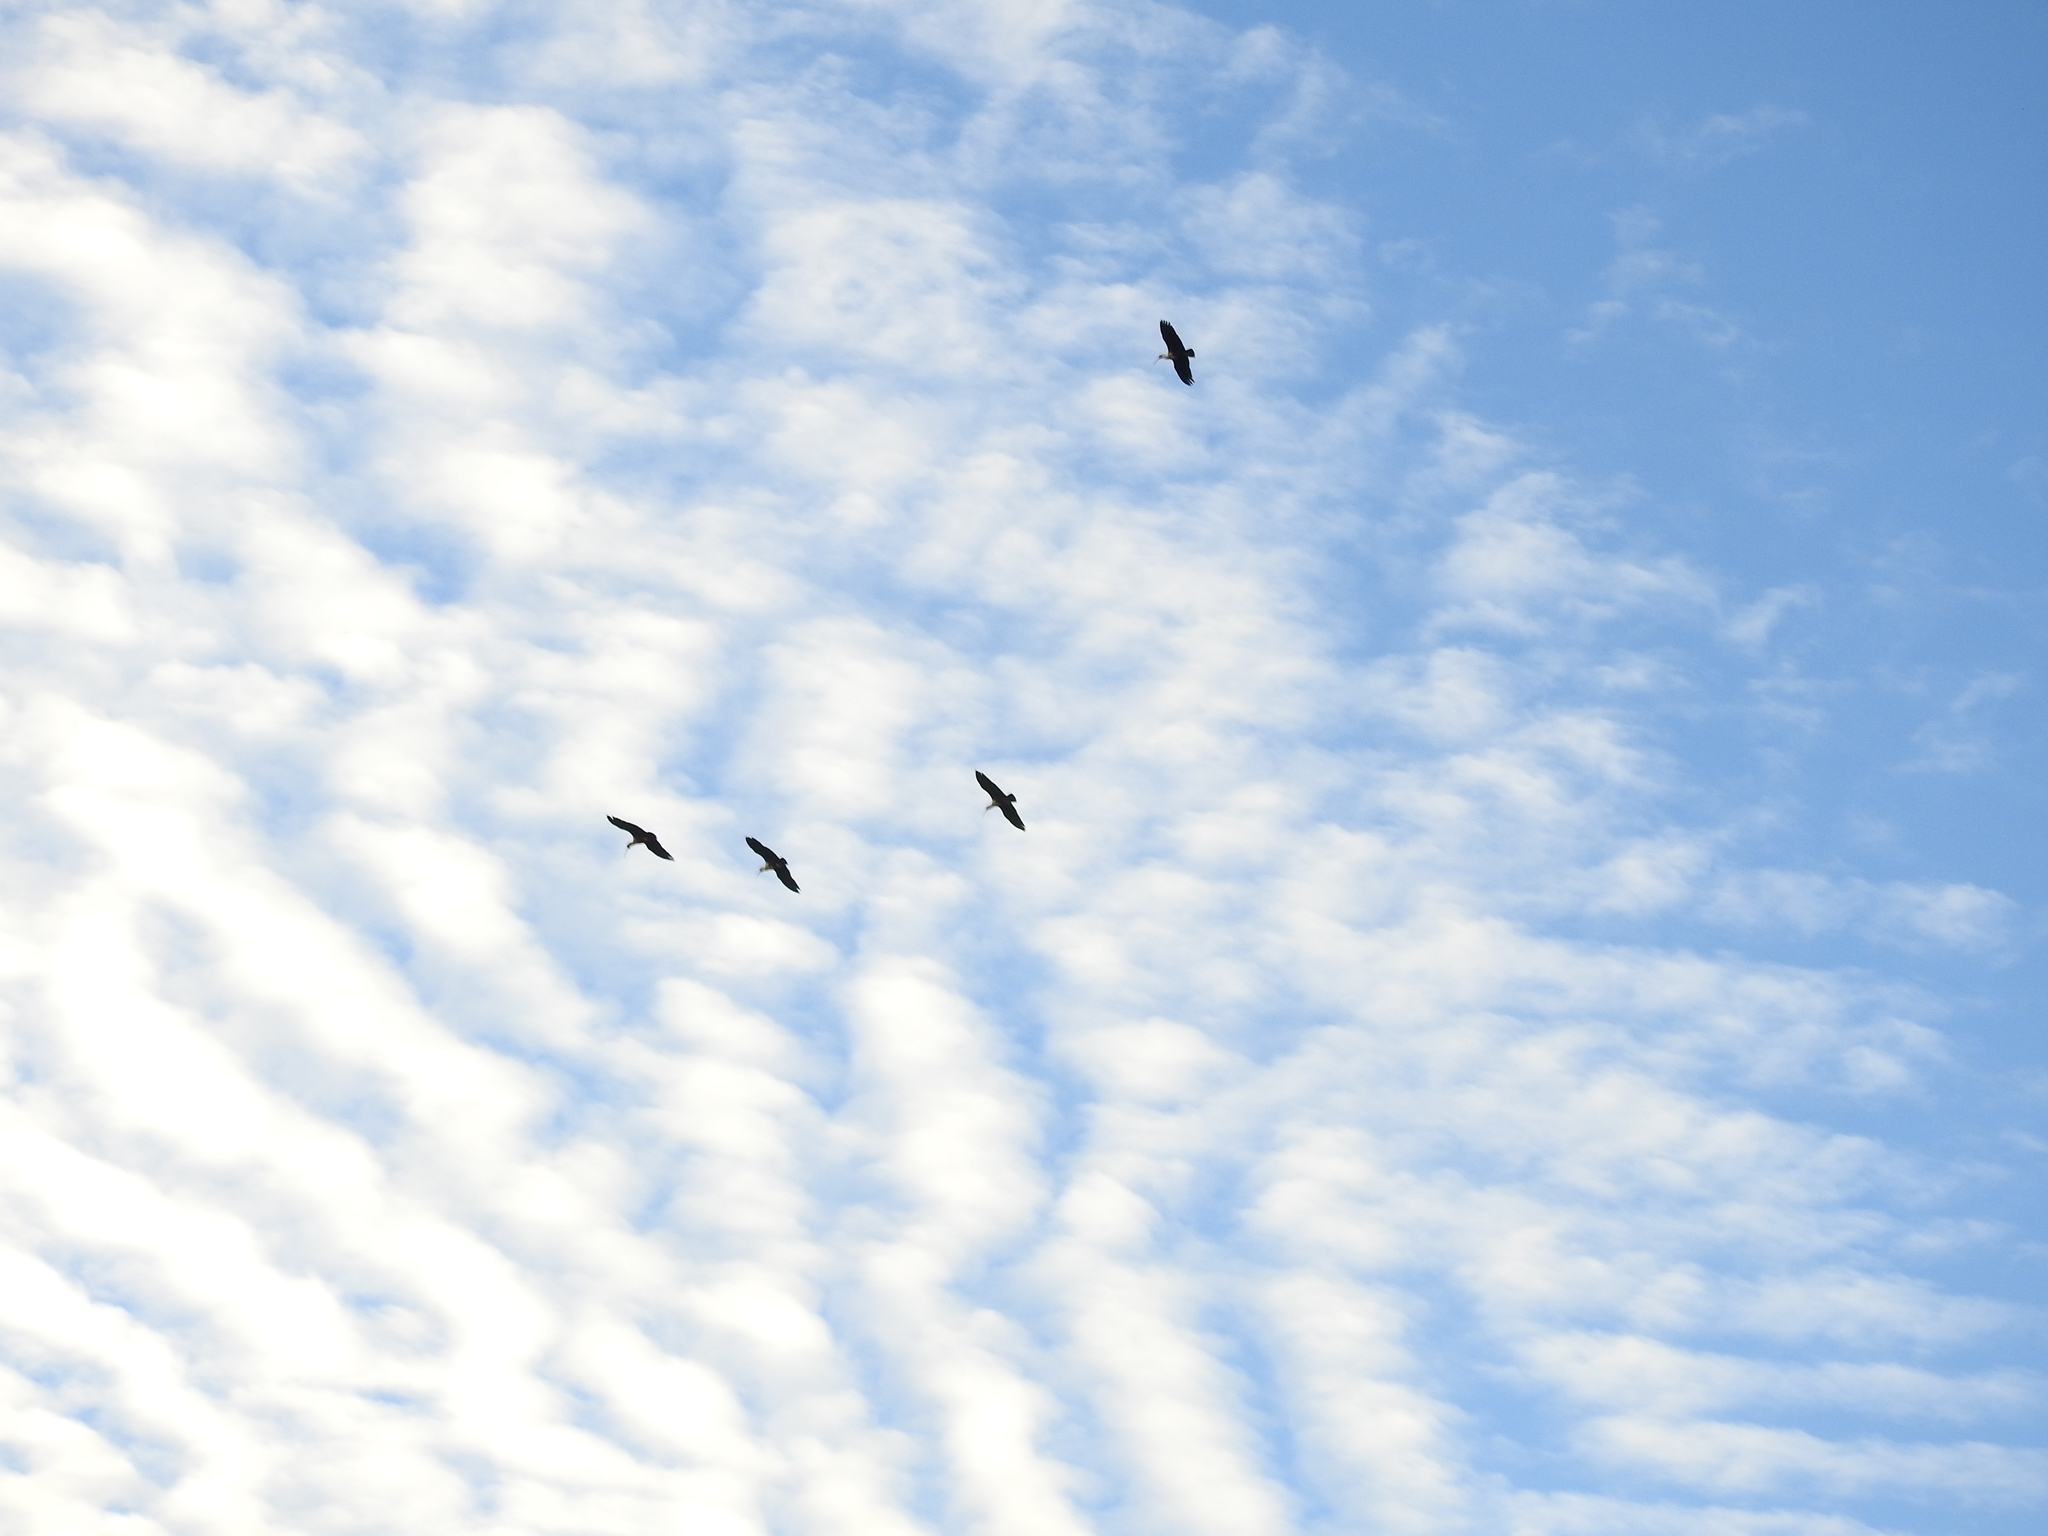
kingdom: Animalia
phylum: Chordata
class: Aves
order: Pelecaniformes
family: Threskiornithidae
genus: Theristicus
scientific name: Theristicus melanopis
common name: Black-faced ibis
